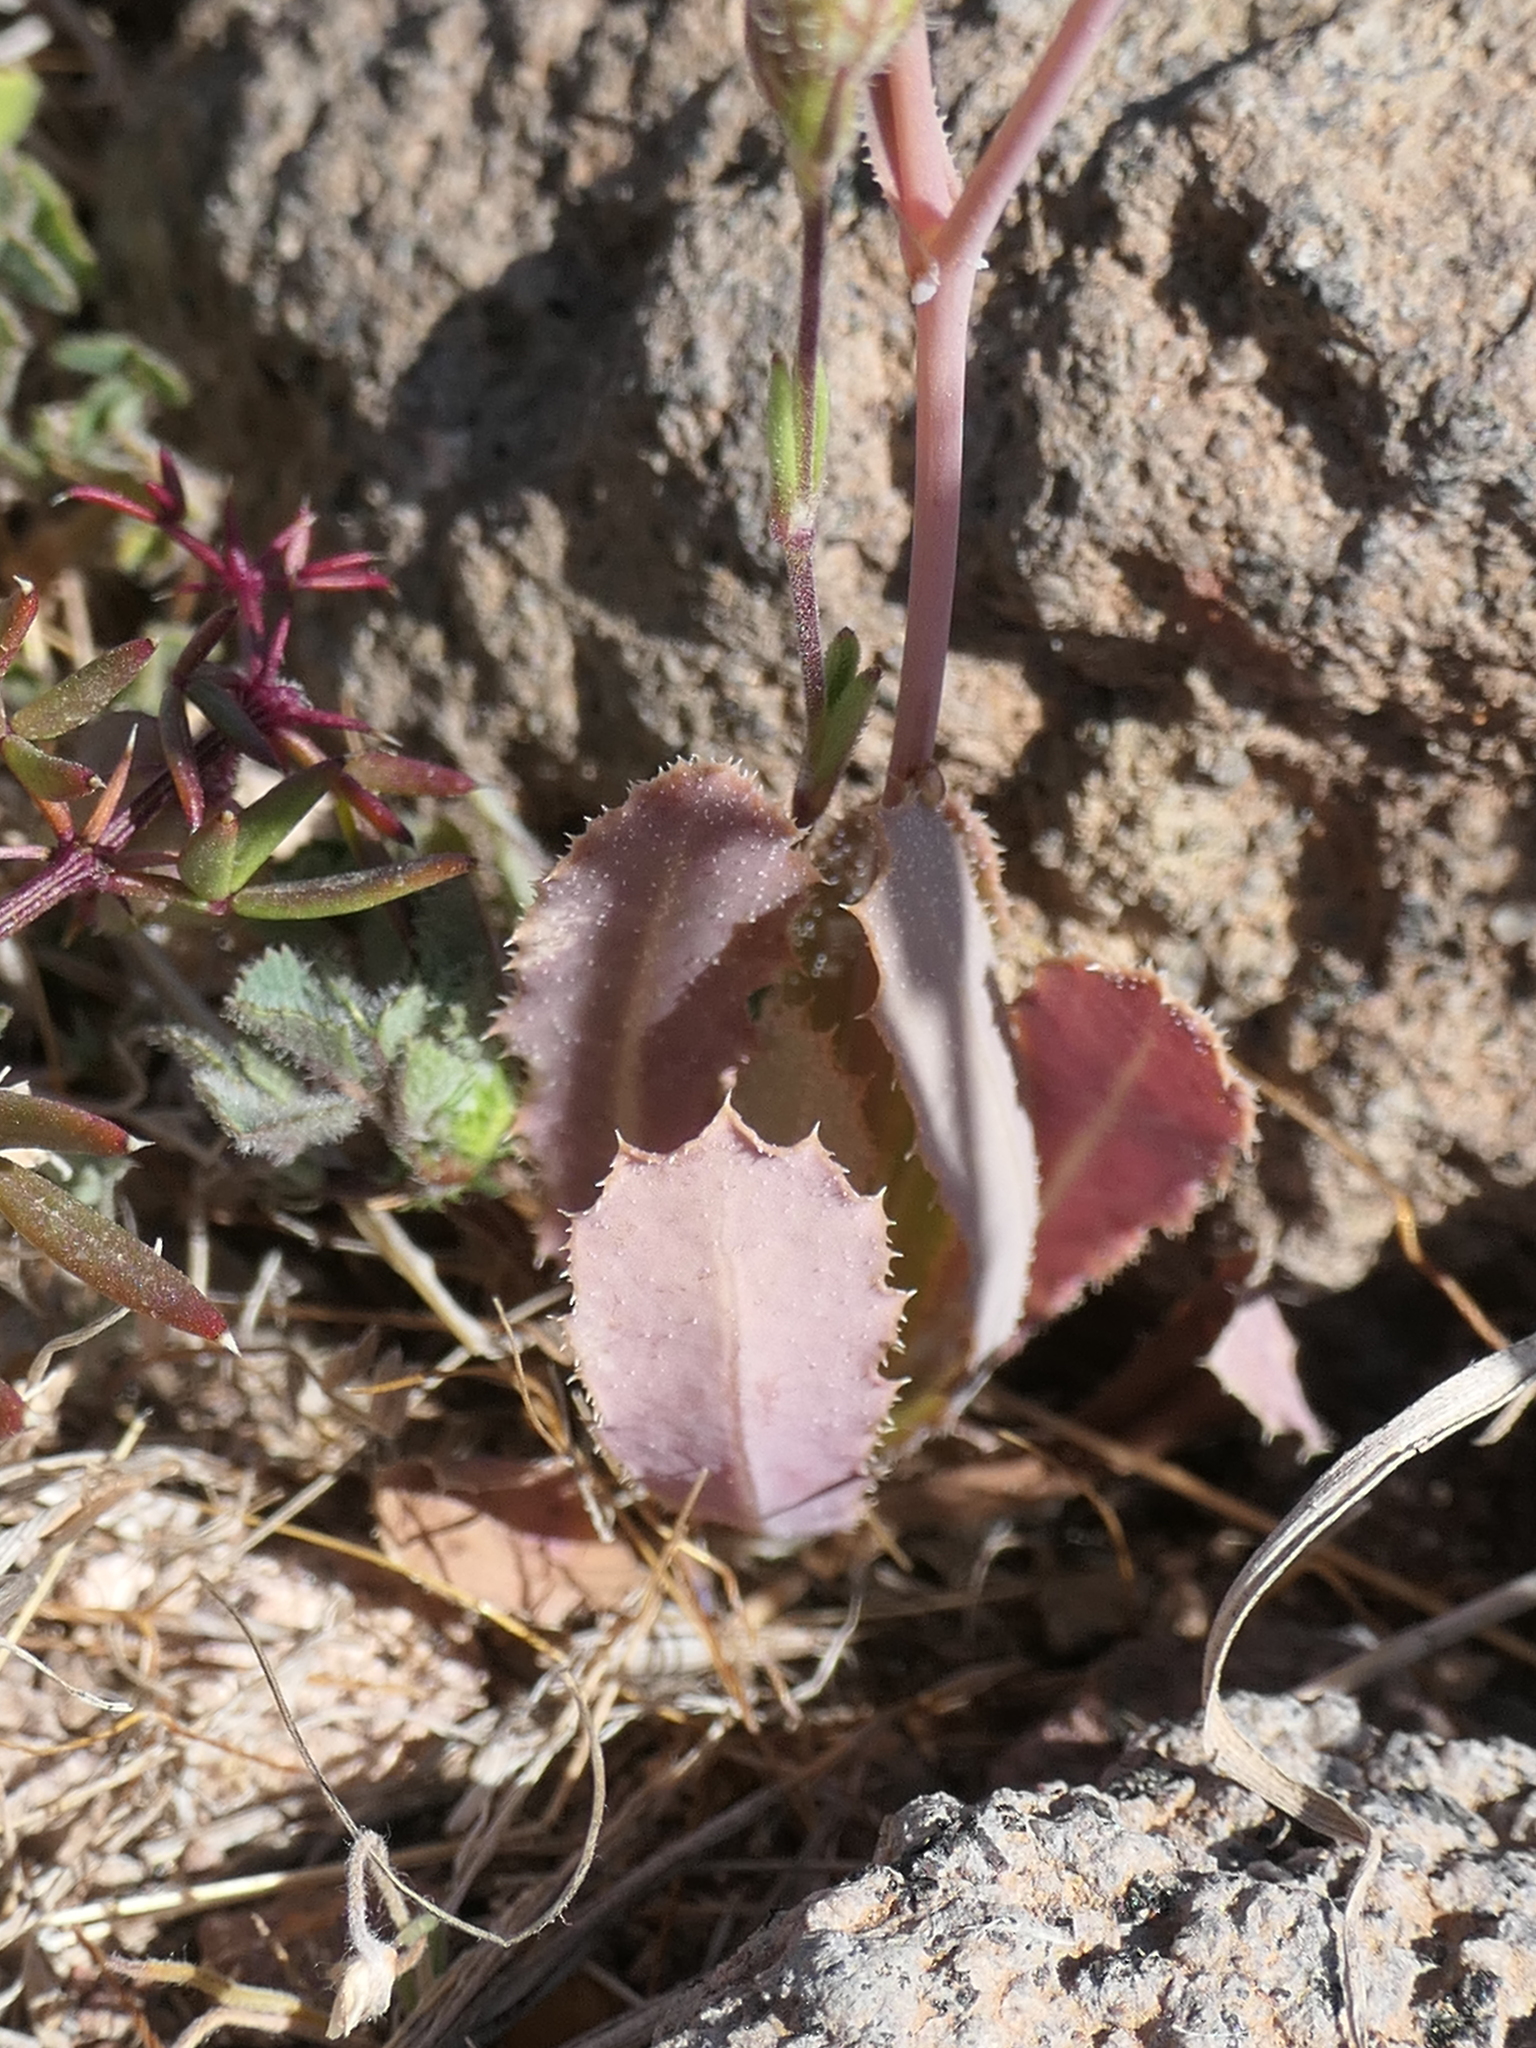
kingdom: Plantae
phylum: Tracheophyta
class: Magnoliopsida
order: Asterales
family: Asteraceae
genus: Reichardia
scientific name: Reichardia tingitana
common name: Reichardia
